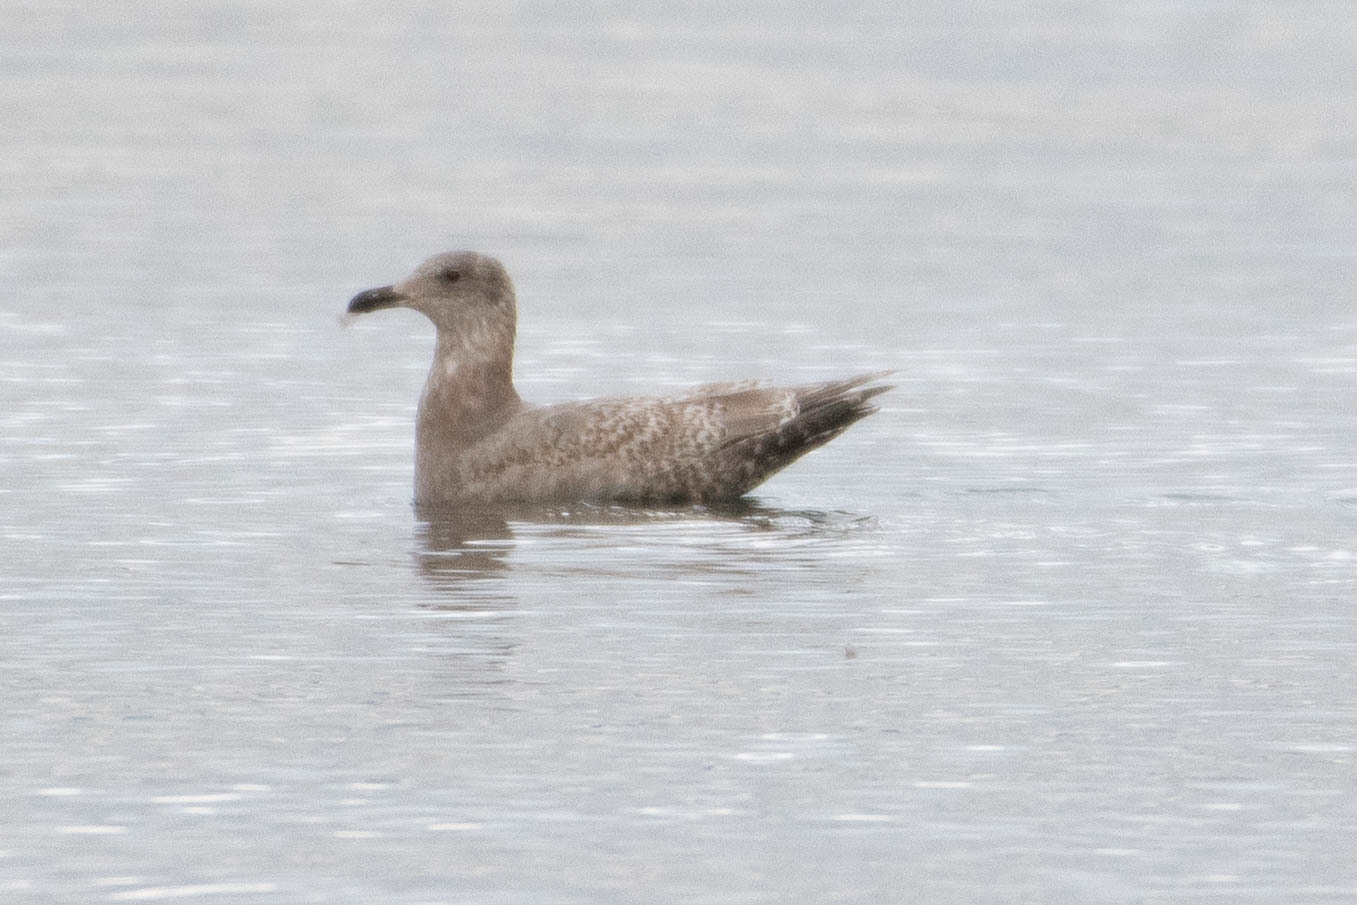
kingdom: Animalia
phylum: Chordata
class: Aves
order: Charadriiformes
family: Laridae
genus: Larus
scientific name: Larus
